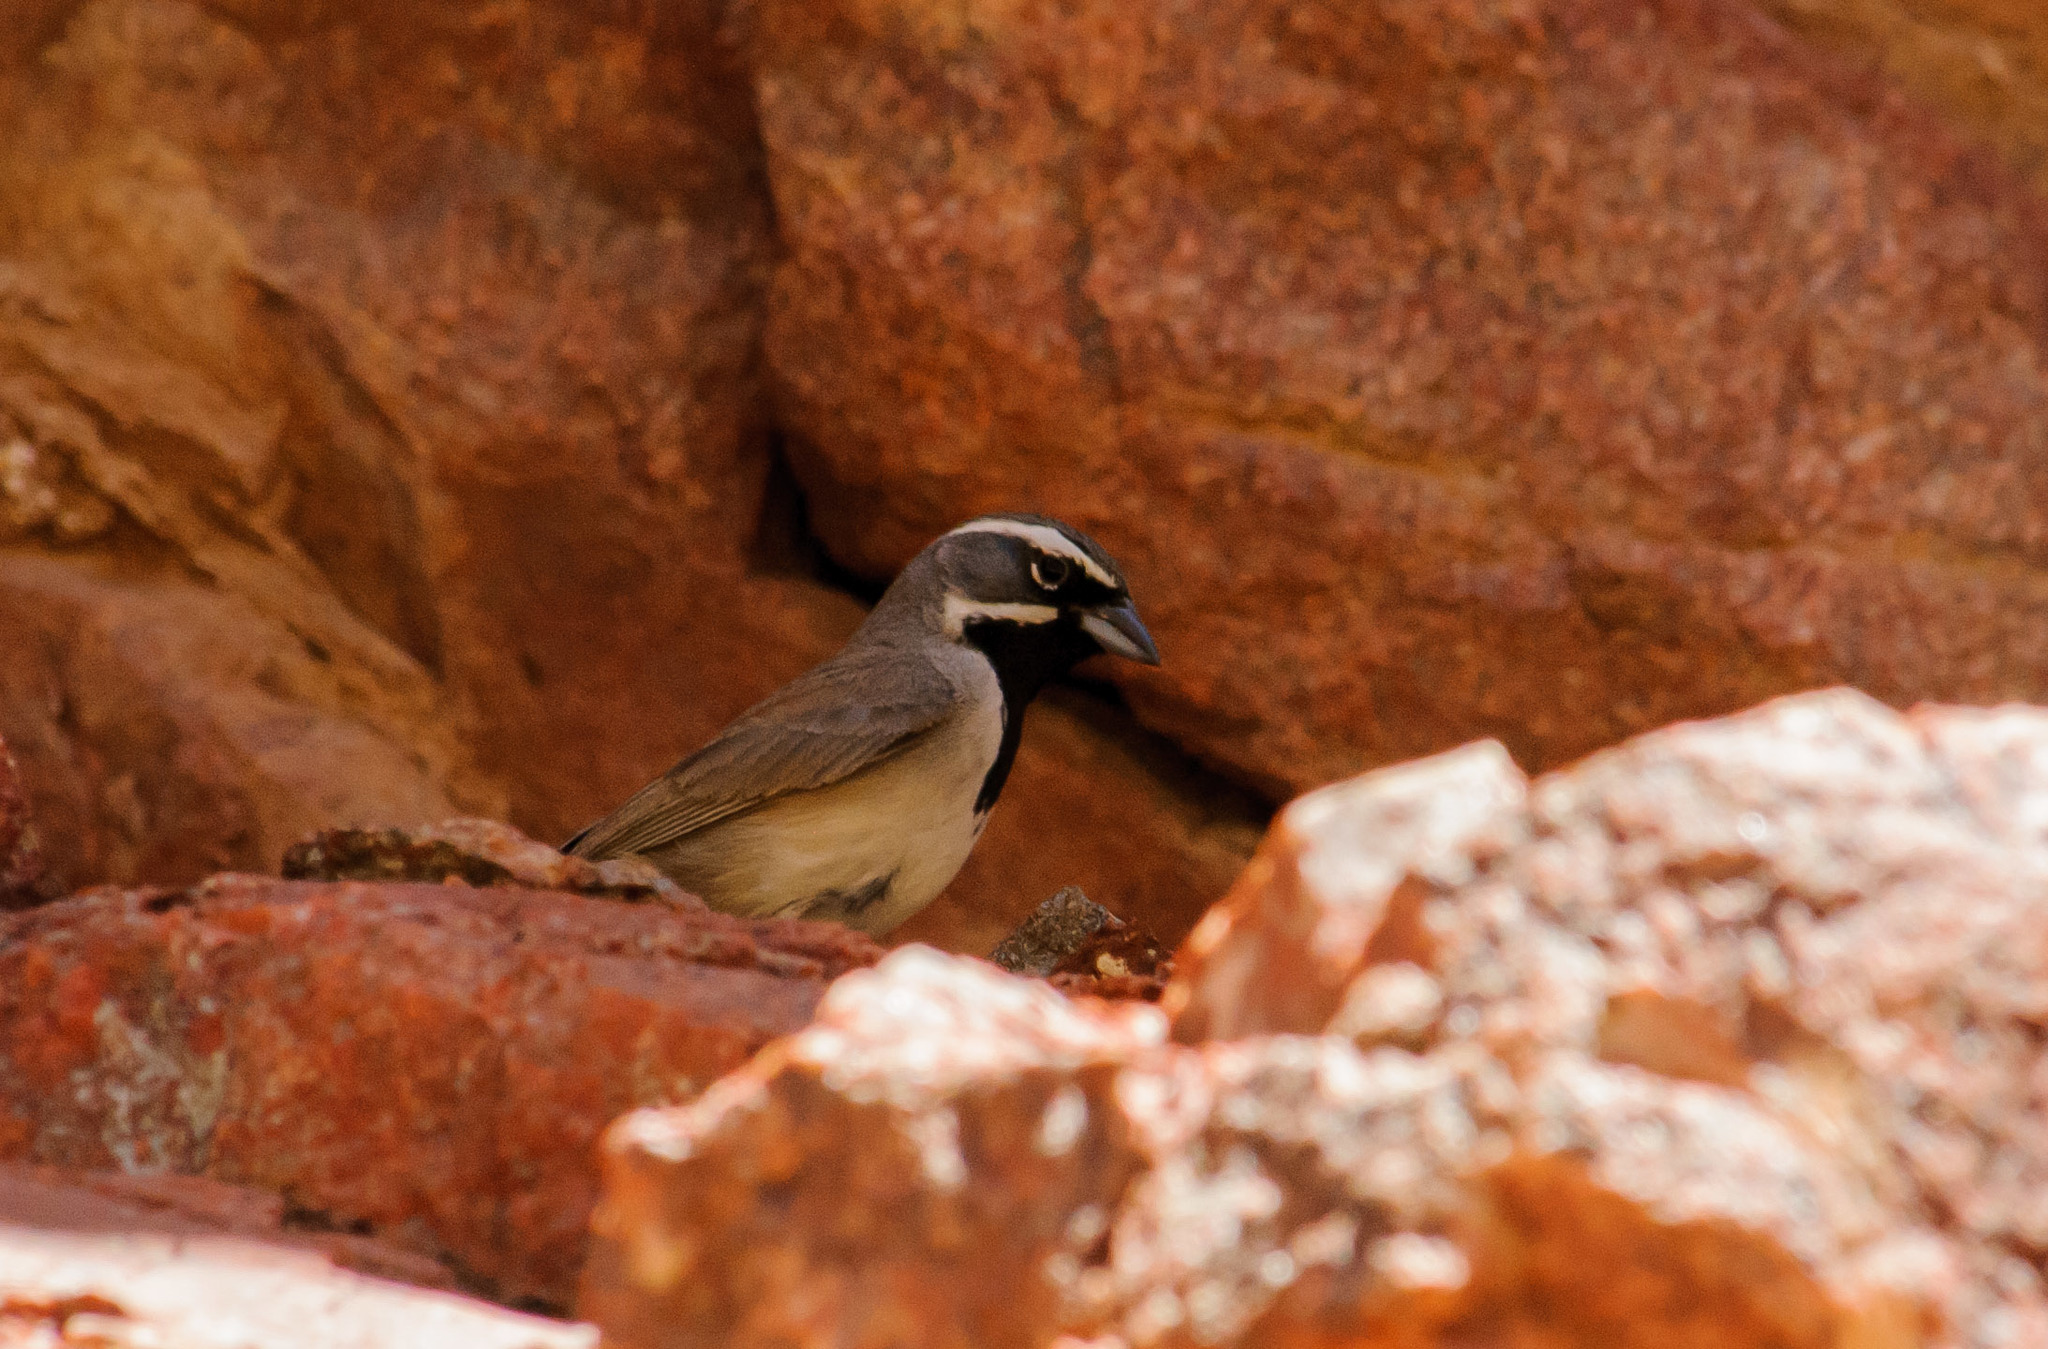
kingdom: Animalia
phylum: Chordata
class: Aves
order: Passeriformes
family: Passerellidae
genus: Amphispiza
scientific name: Amphispiza bilineata
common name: Black-throated sparrow
